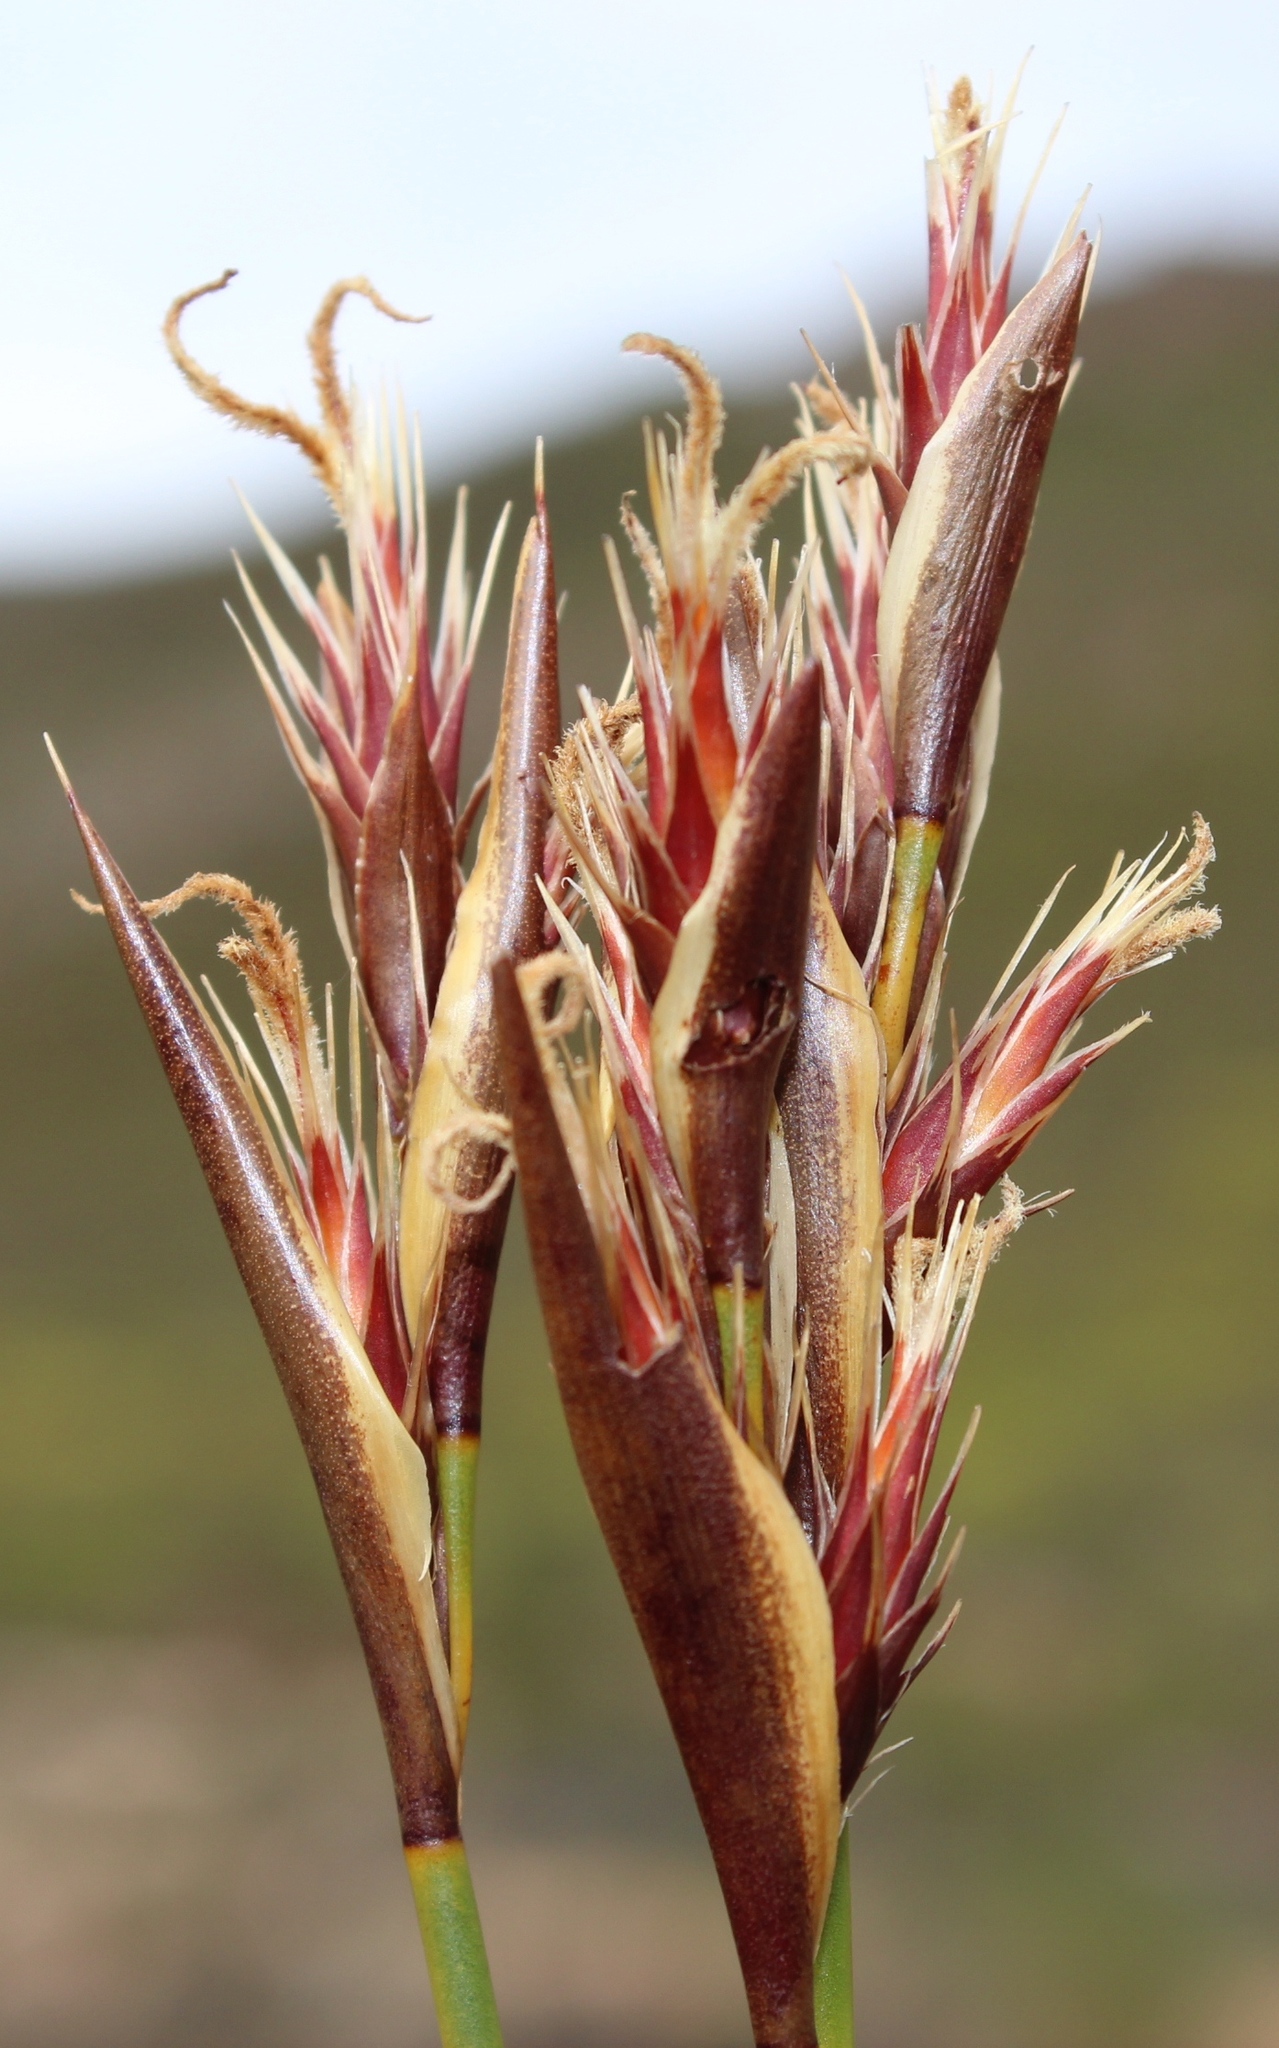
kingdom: Plantae
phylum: Tracheophyta
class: Liliopsida
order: Poales
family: Restionaceae
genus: Hypodiscus
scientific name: Hypodiscus aristatus
